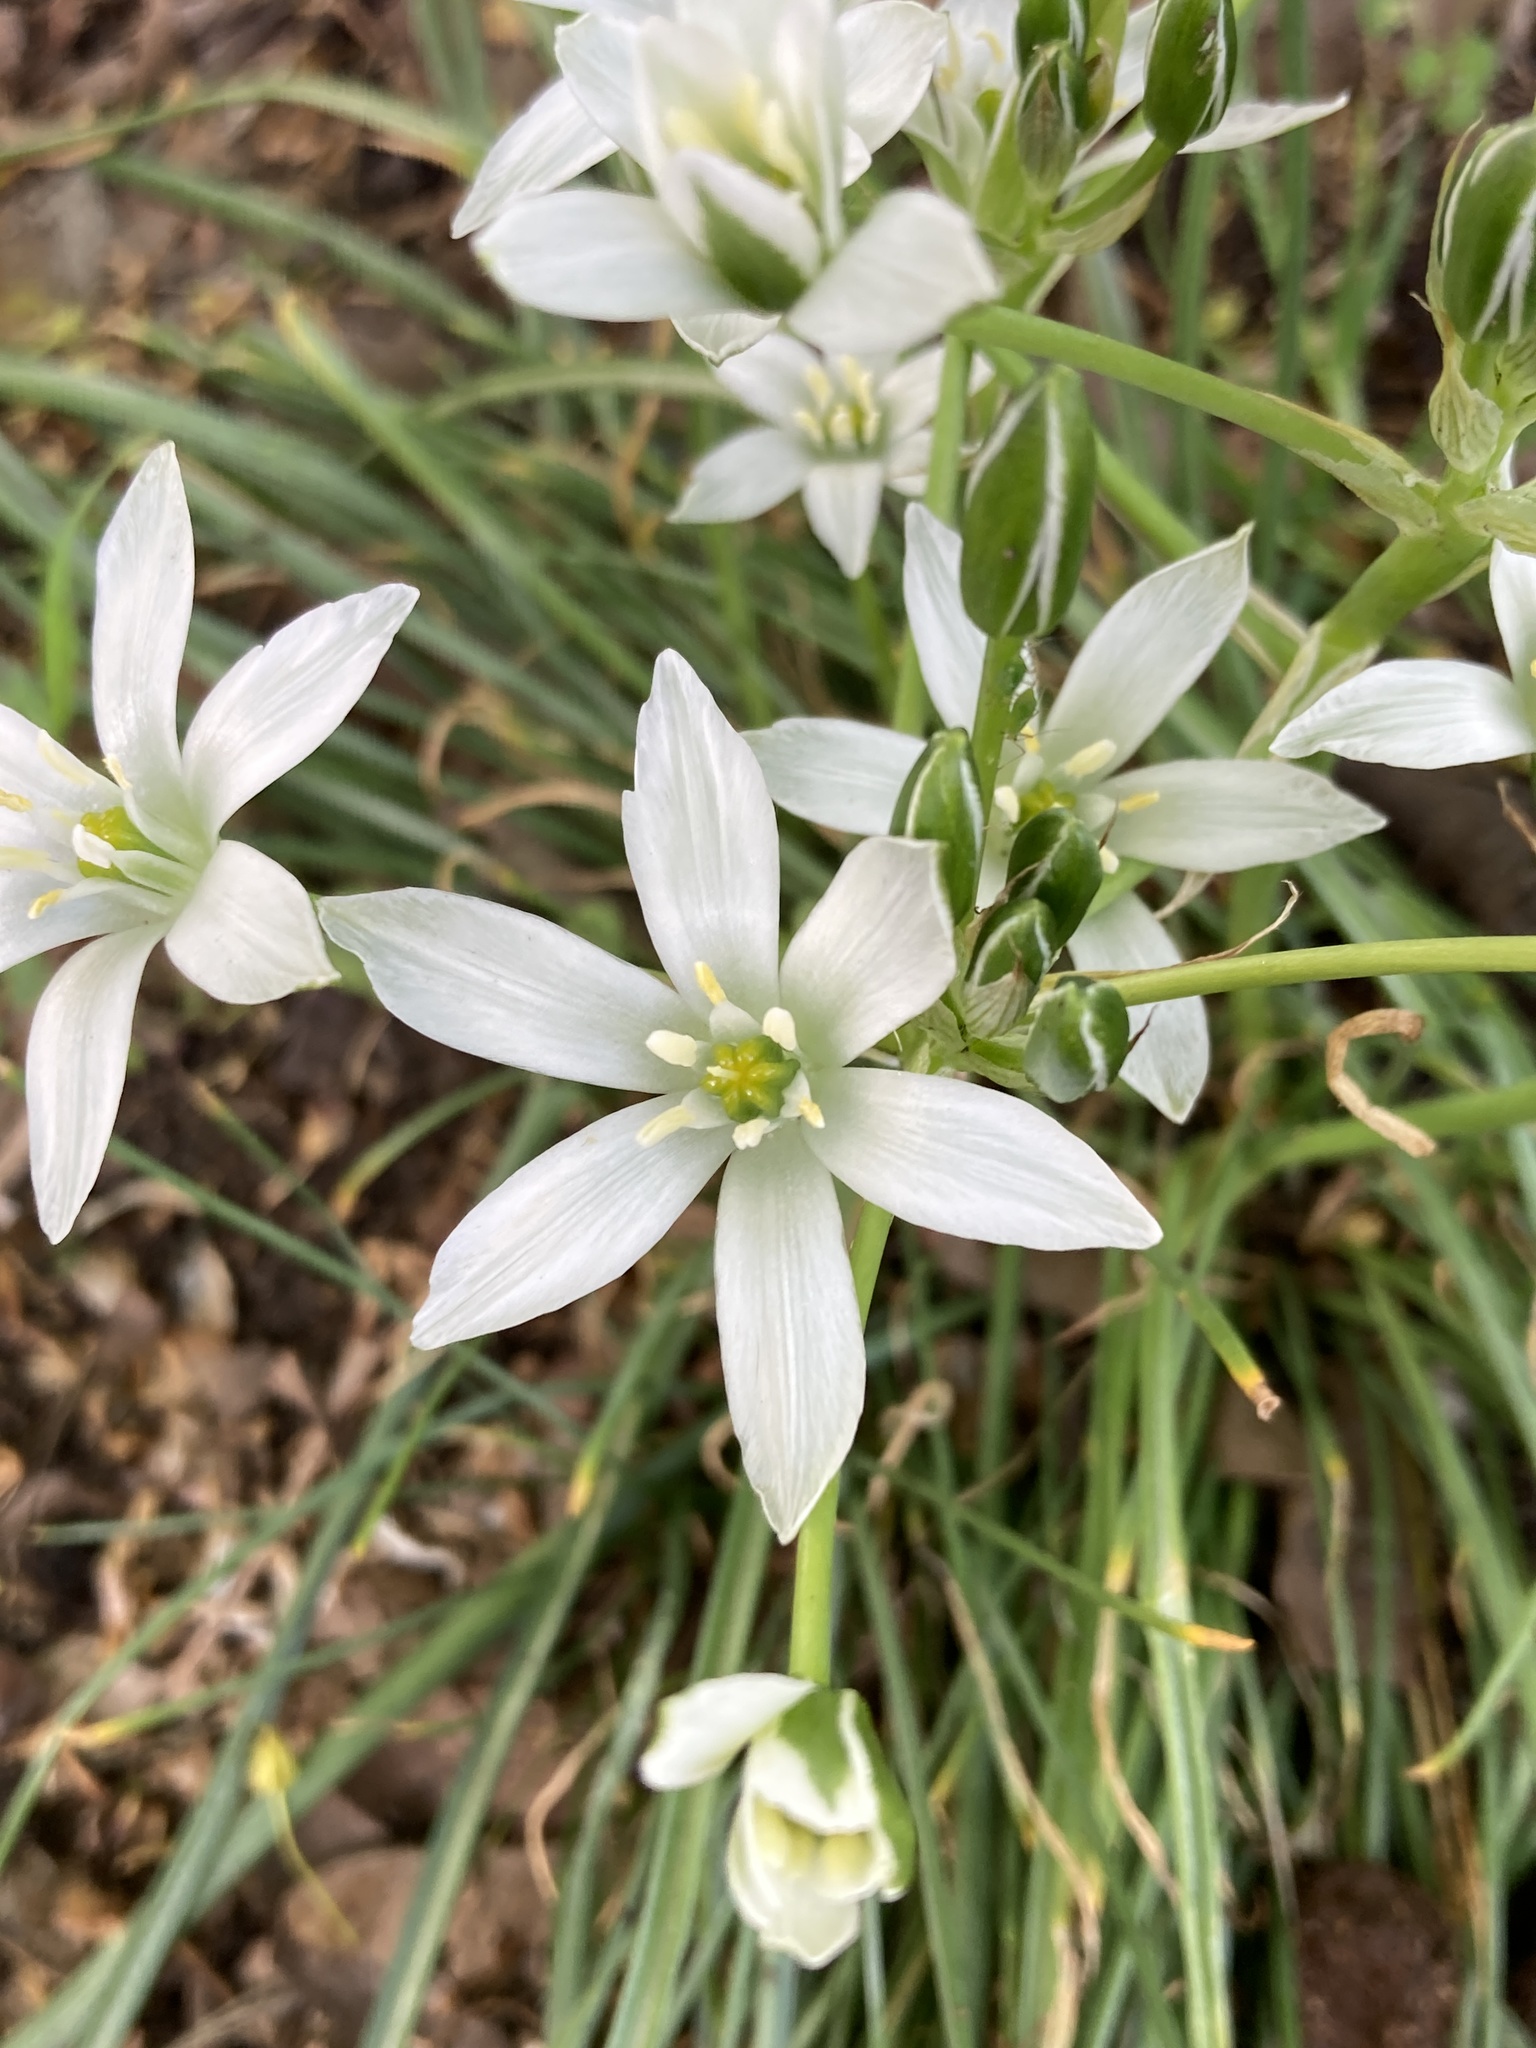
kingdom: Plantae
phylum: Tracheophyta
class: Liliopsida
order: Asparagales
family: Asparagaceae
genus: Ornithogalum
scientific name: Ornithogalum umbellatum
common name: Garden star-of-bethlehem
